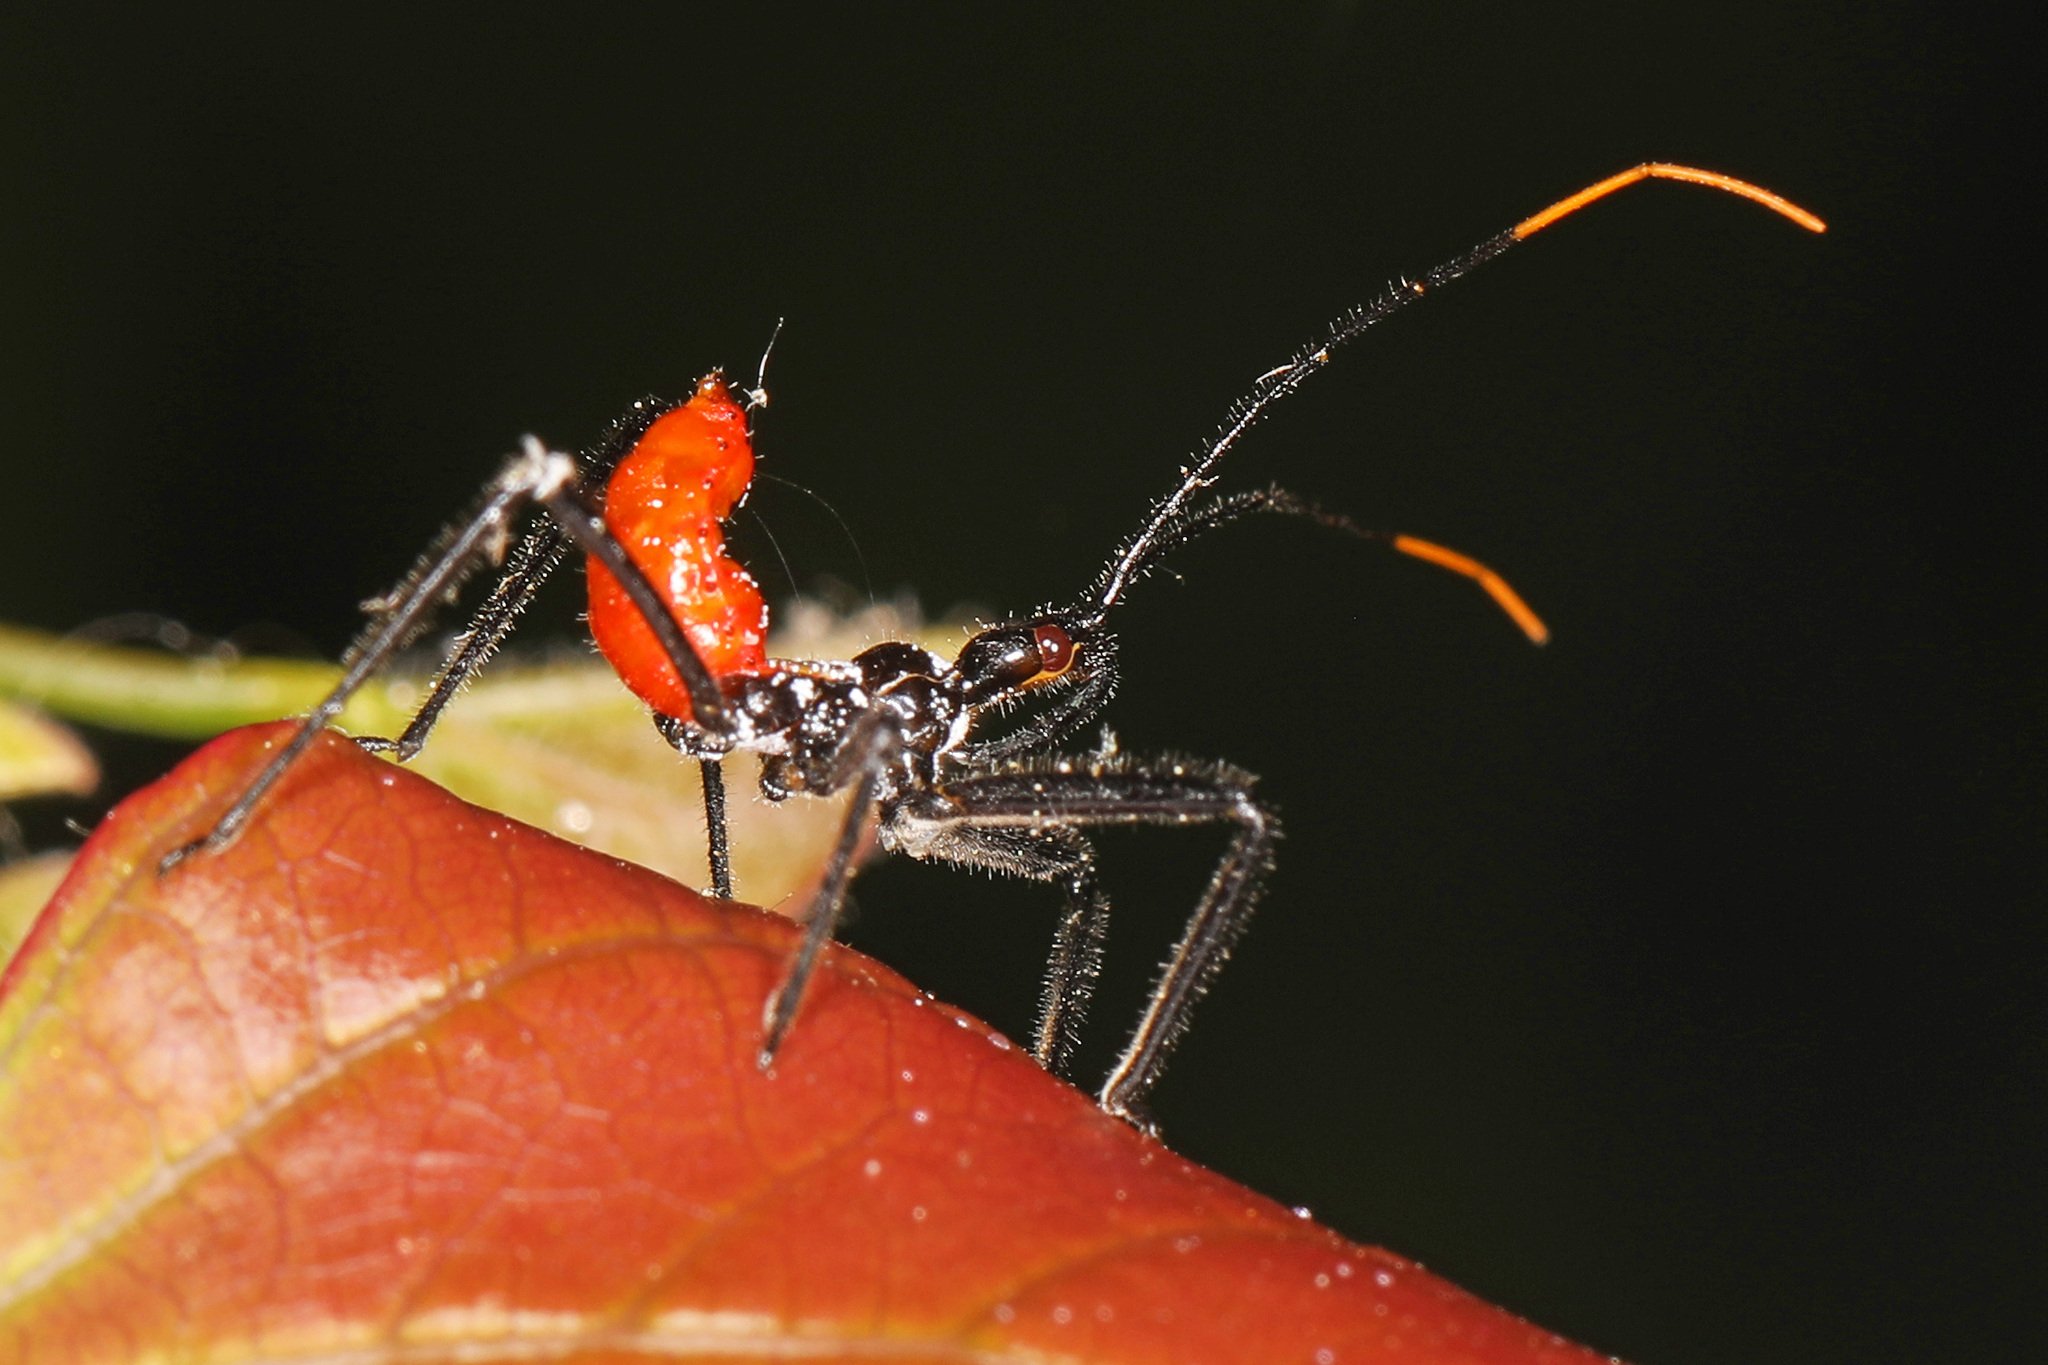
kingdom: Animalia
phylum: Arthropoda
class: Insecta
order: Hemiptera
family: Reduviidae
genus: Arilus
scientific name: Arilus cristatus
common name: North american wheel bug
